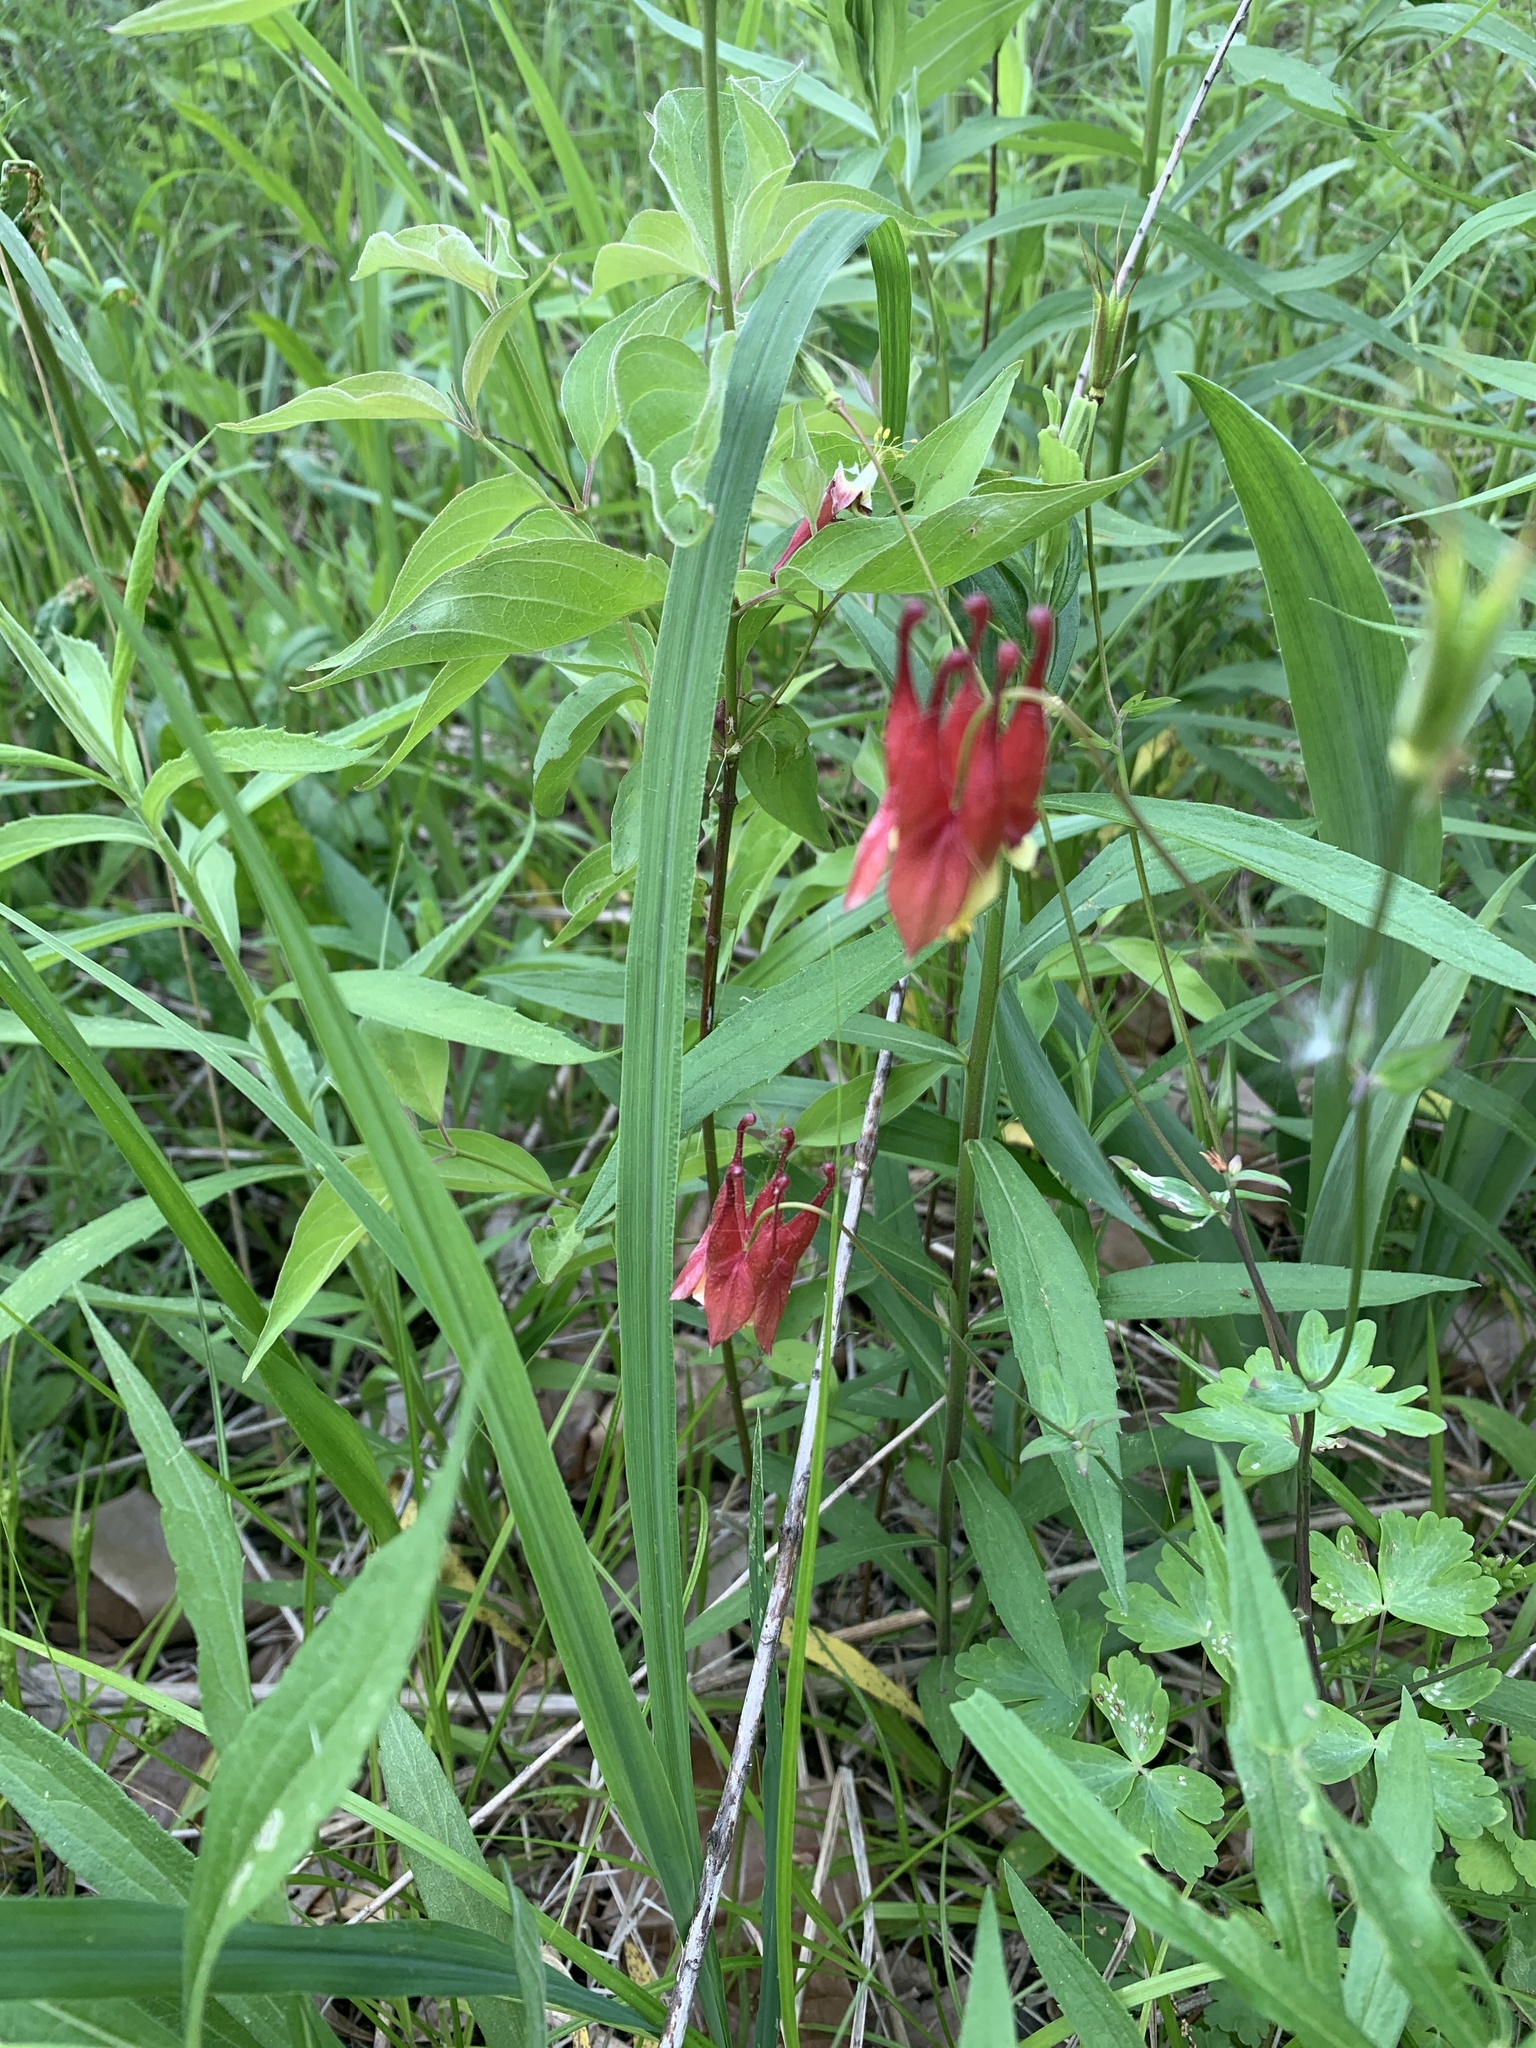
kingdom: Plantae
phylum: Tracheophyta
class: Magnoliopsida
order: Ranunculales
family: Ranunculaceae
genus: Aquilegia
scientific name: Aquilegia canadensis
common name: American columbine
